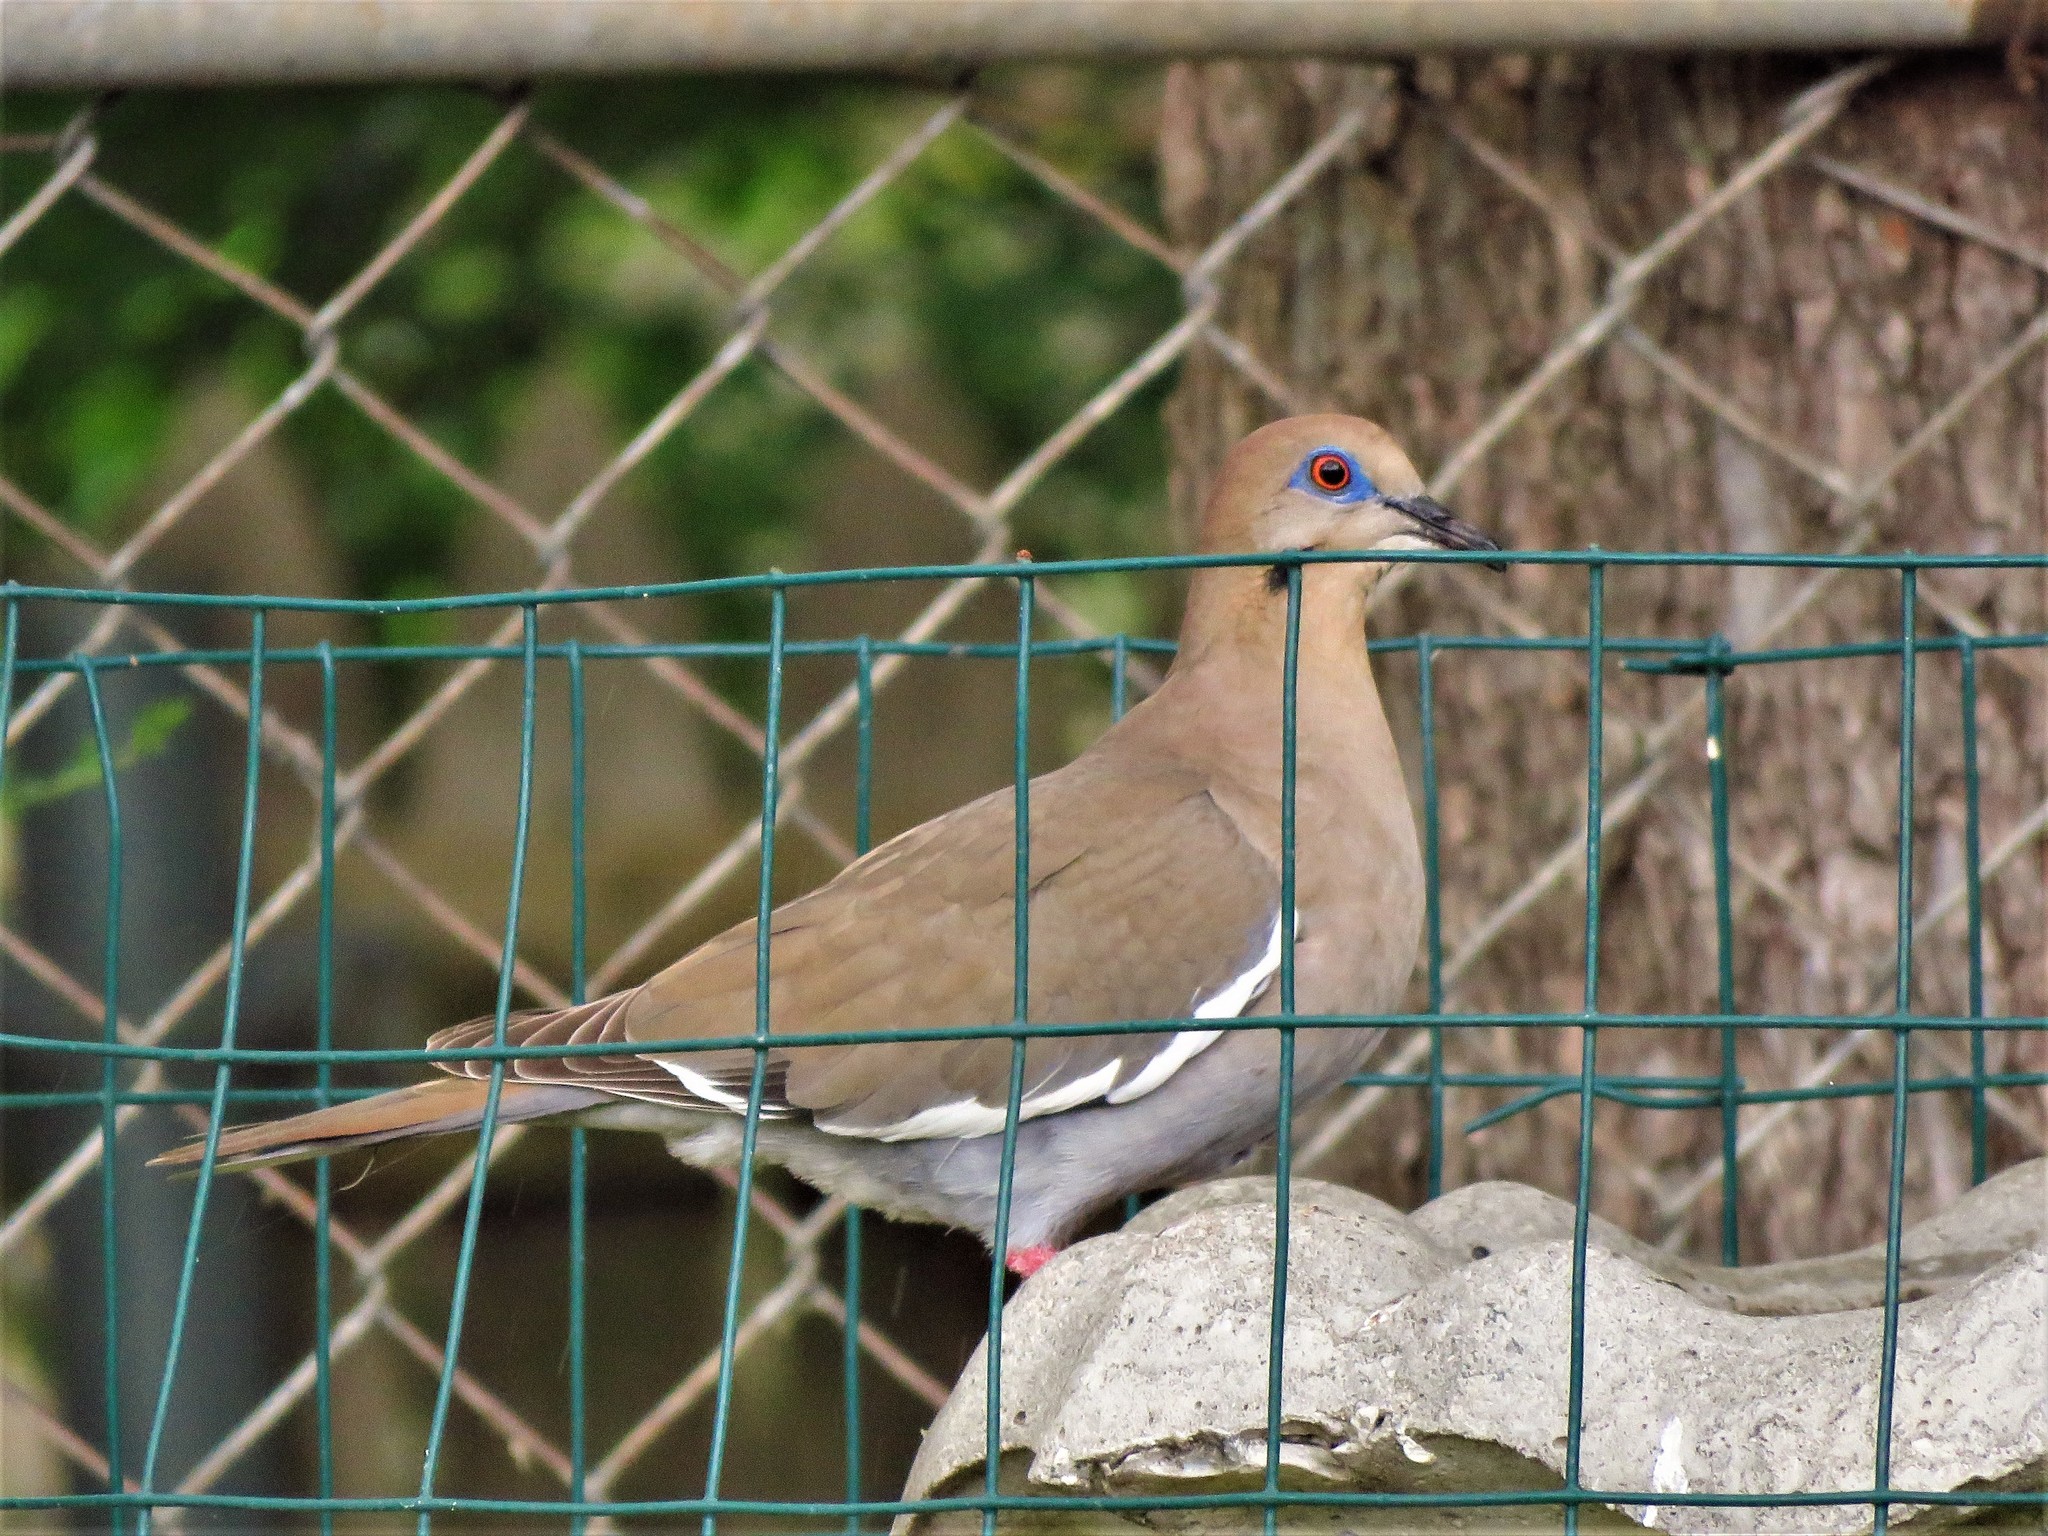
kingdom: Animalia
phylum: Chordata
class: Aves
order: Columbiformes
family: Columbidae
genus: Zenaida
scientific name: Zenaida asiatica
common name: White-winged dove
